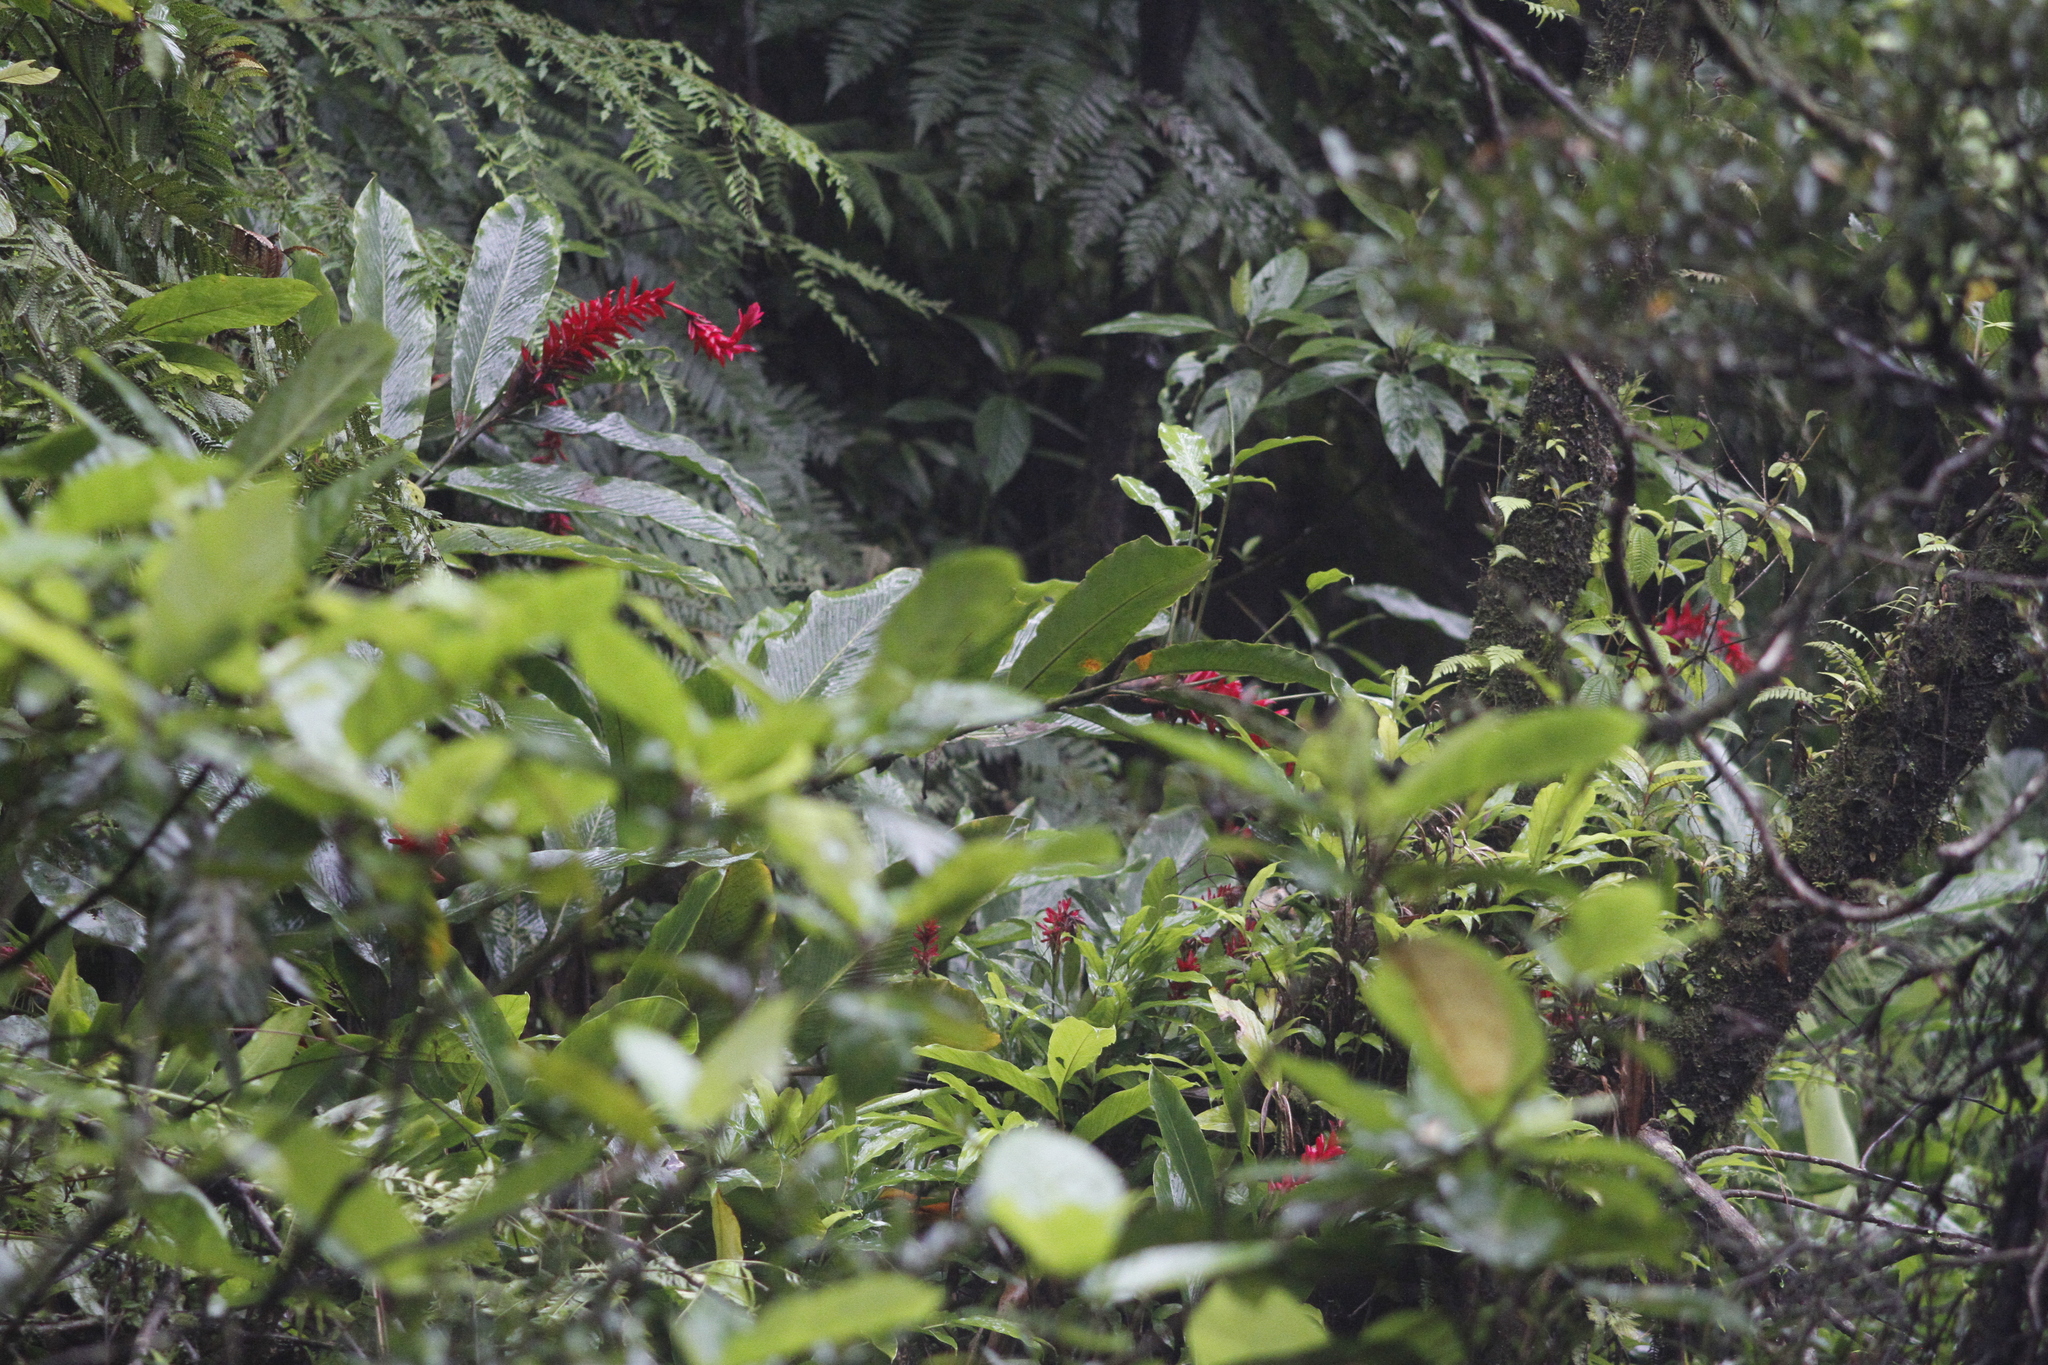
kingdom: Plantae
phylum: Tracheophyta
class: Liliopsida
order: Zingiberales
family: Zingiberaceae
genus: Alpinia
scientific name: Alpinia purpurata
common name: Red ginger
